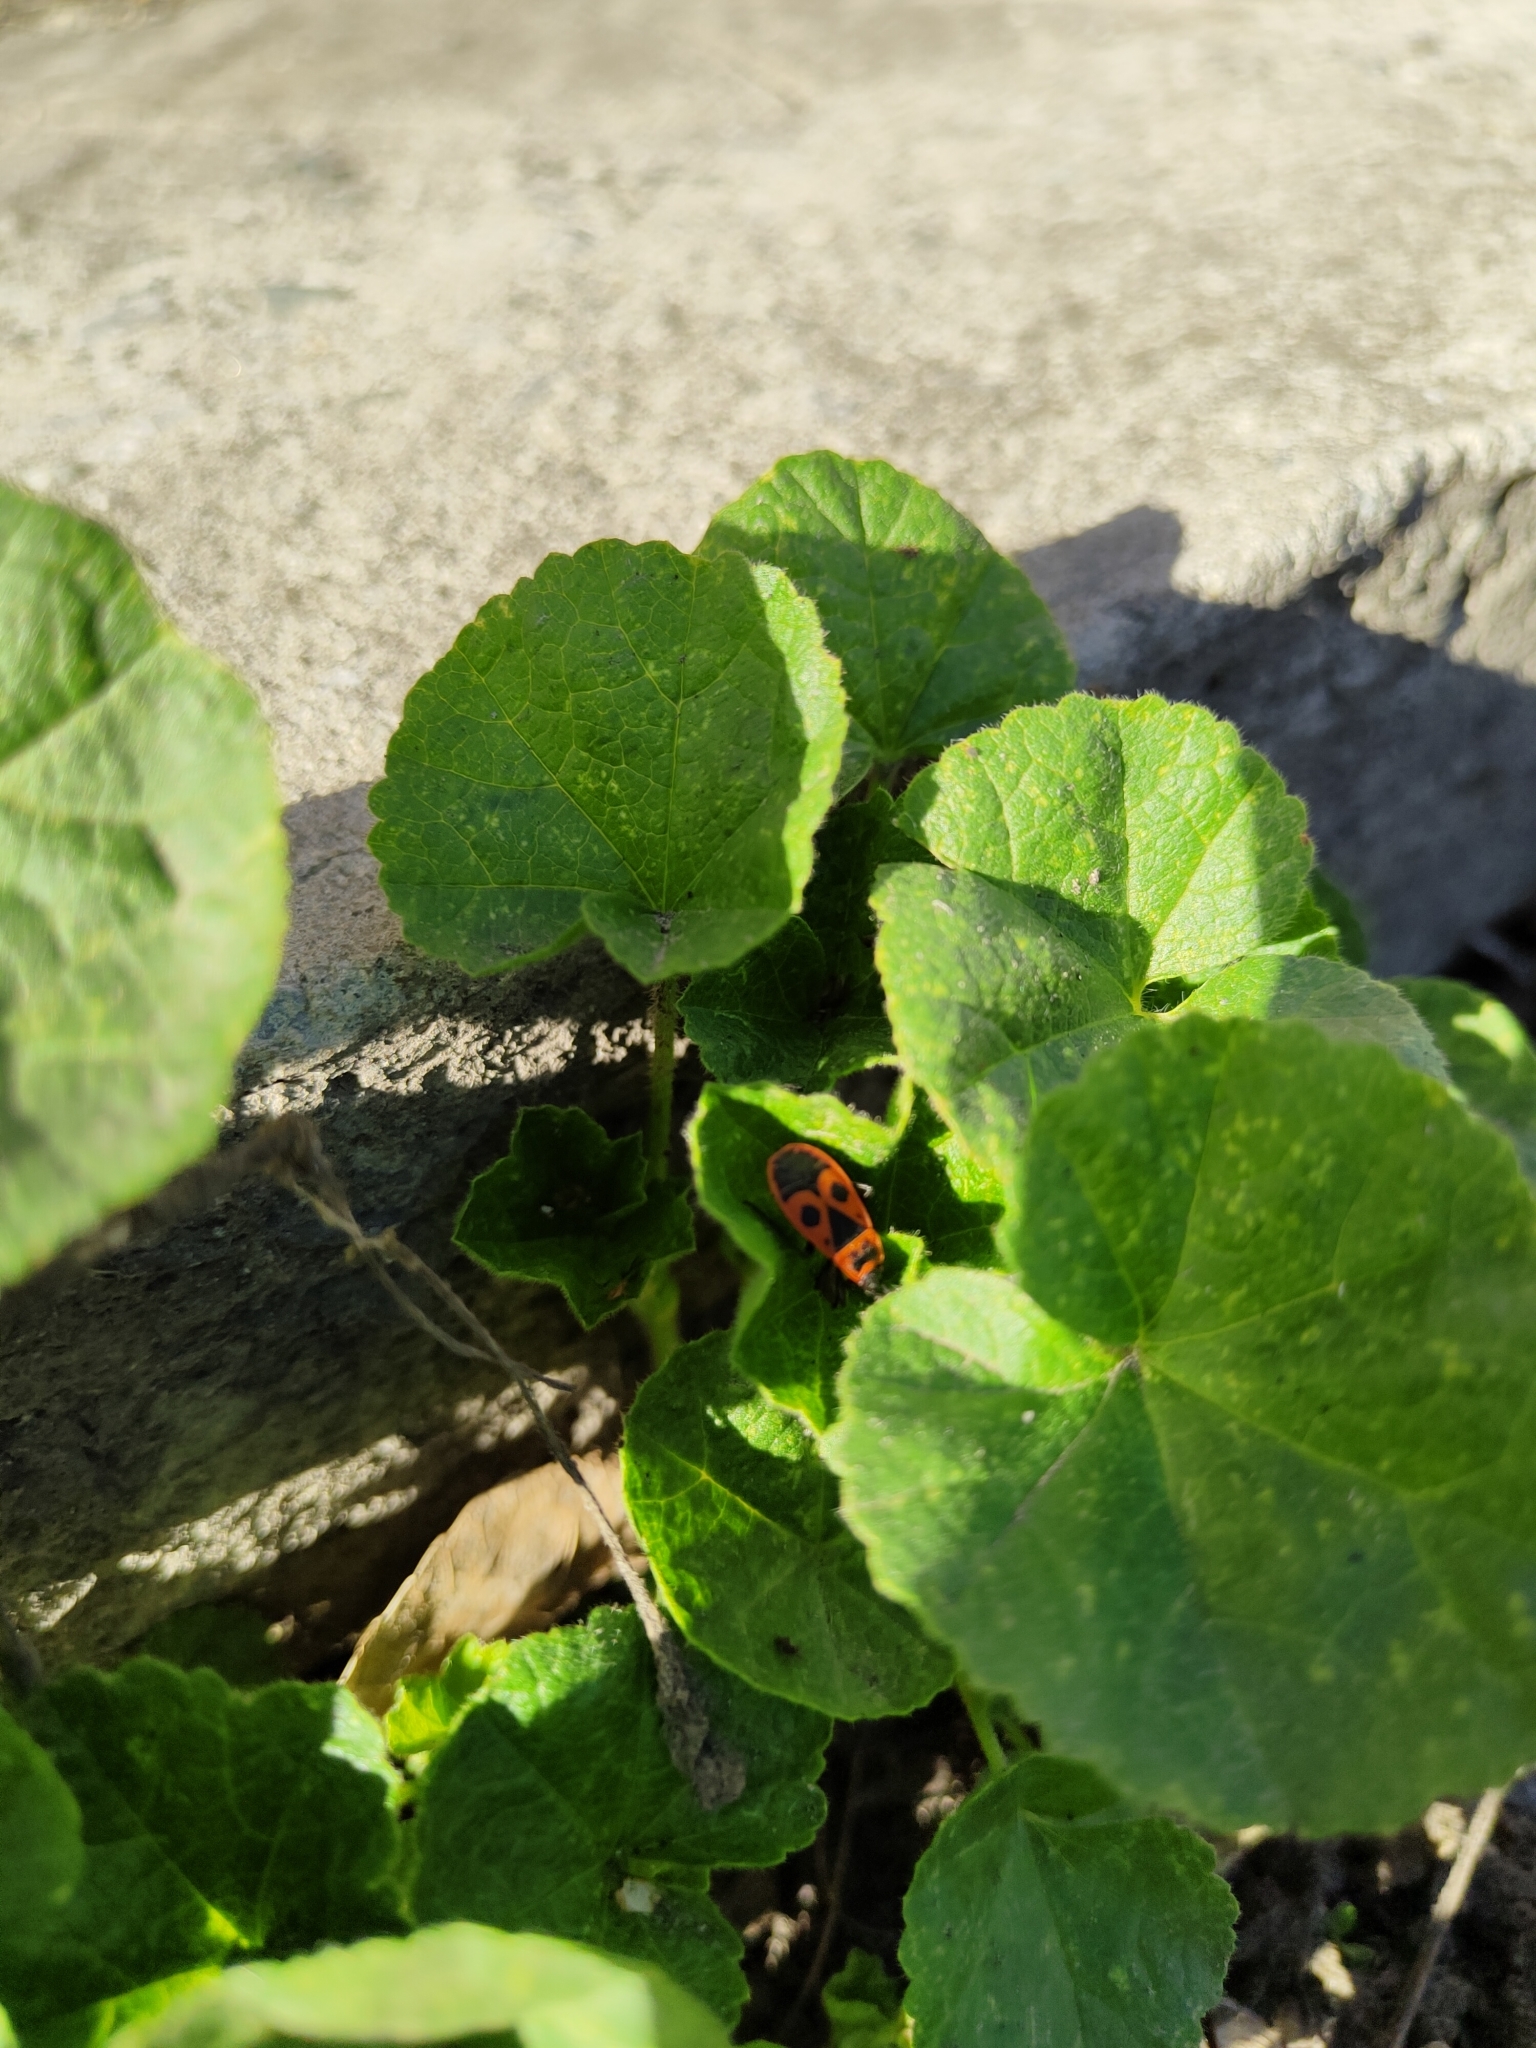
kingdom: Animalia
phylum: Arthropoda
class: Insecta
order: Hemiptera
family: Pyrrhocoridae
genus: Pyrrhocoris
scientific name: Pyrrhocoris apterus
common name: Firebug
